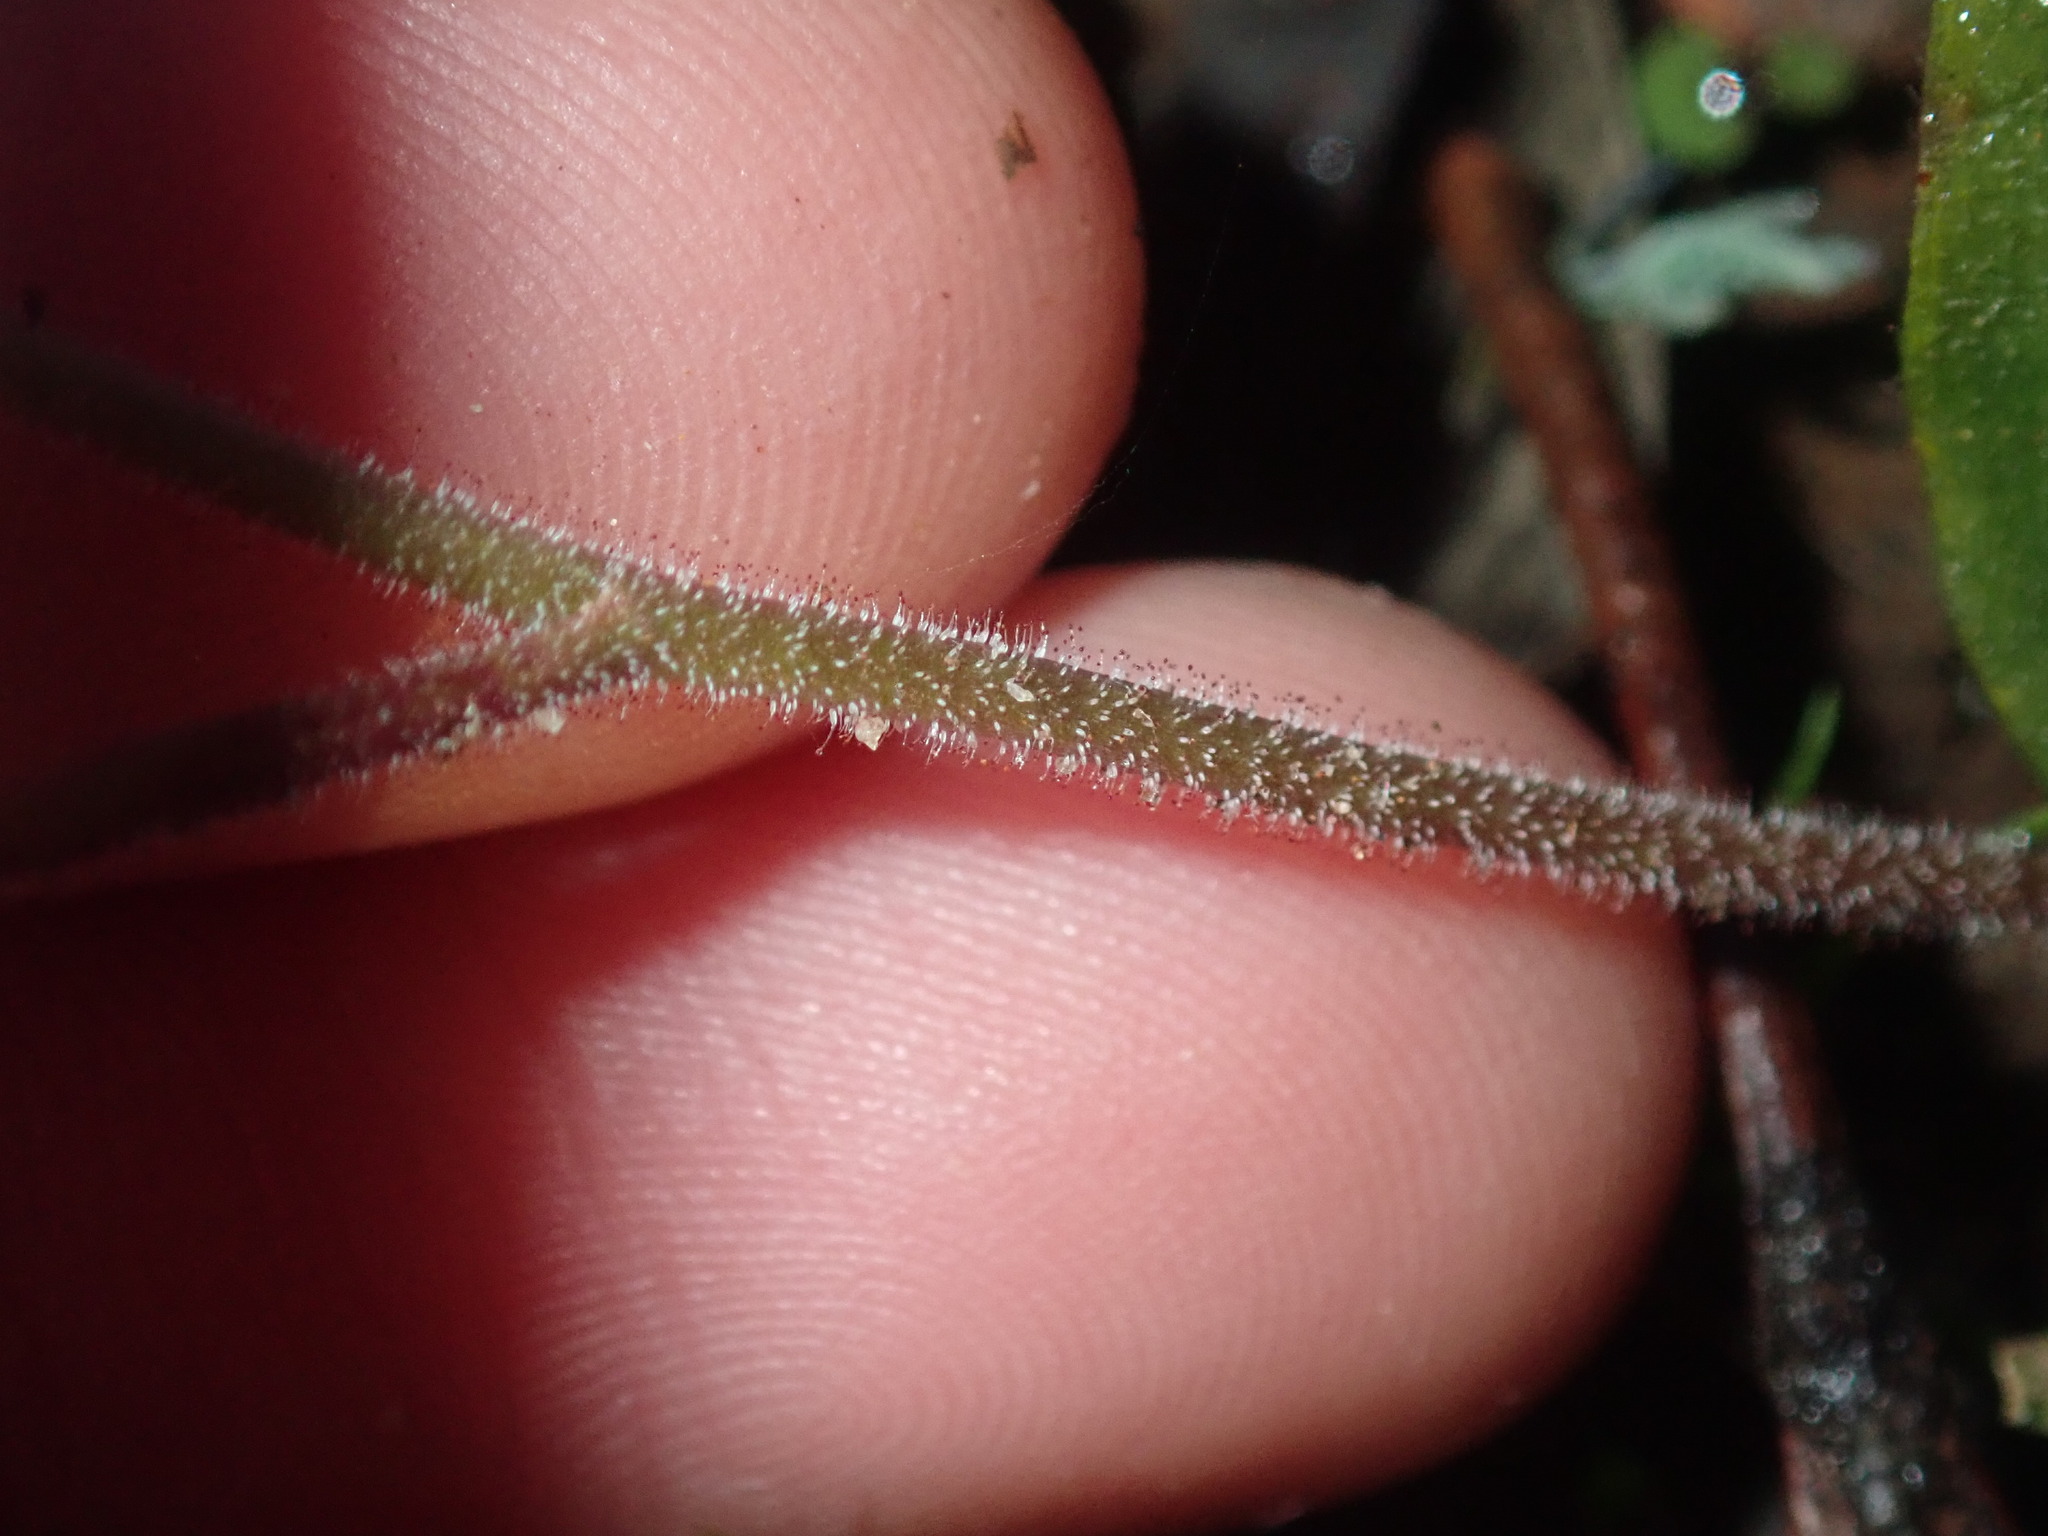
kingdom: Plantae
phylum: Tracheophyta
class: Liliopsida
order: Asparagales
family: Orchidaceae
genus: Caladenia
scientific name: Caladenia reptans
